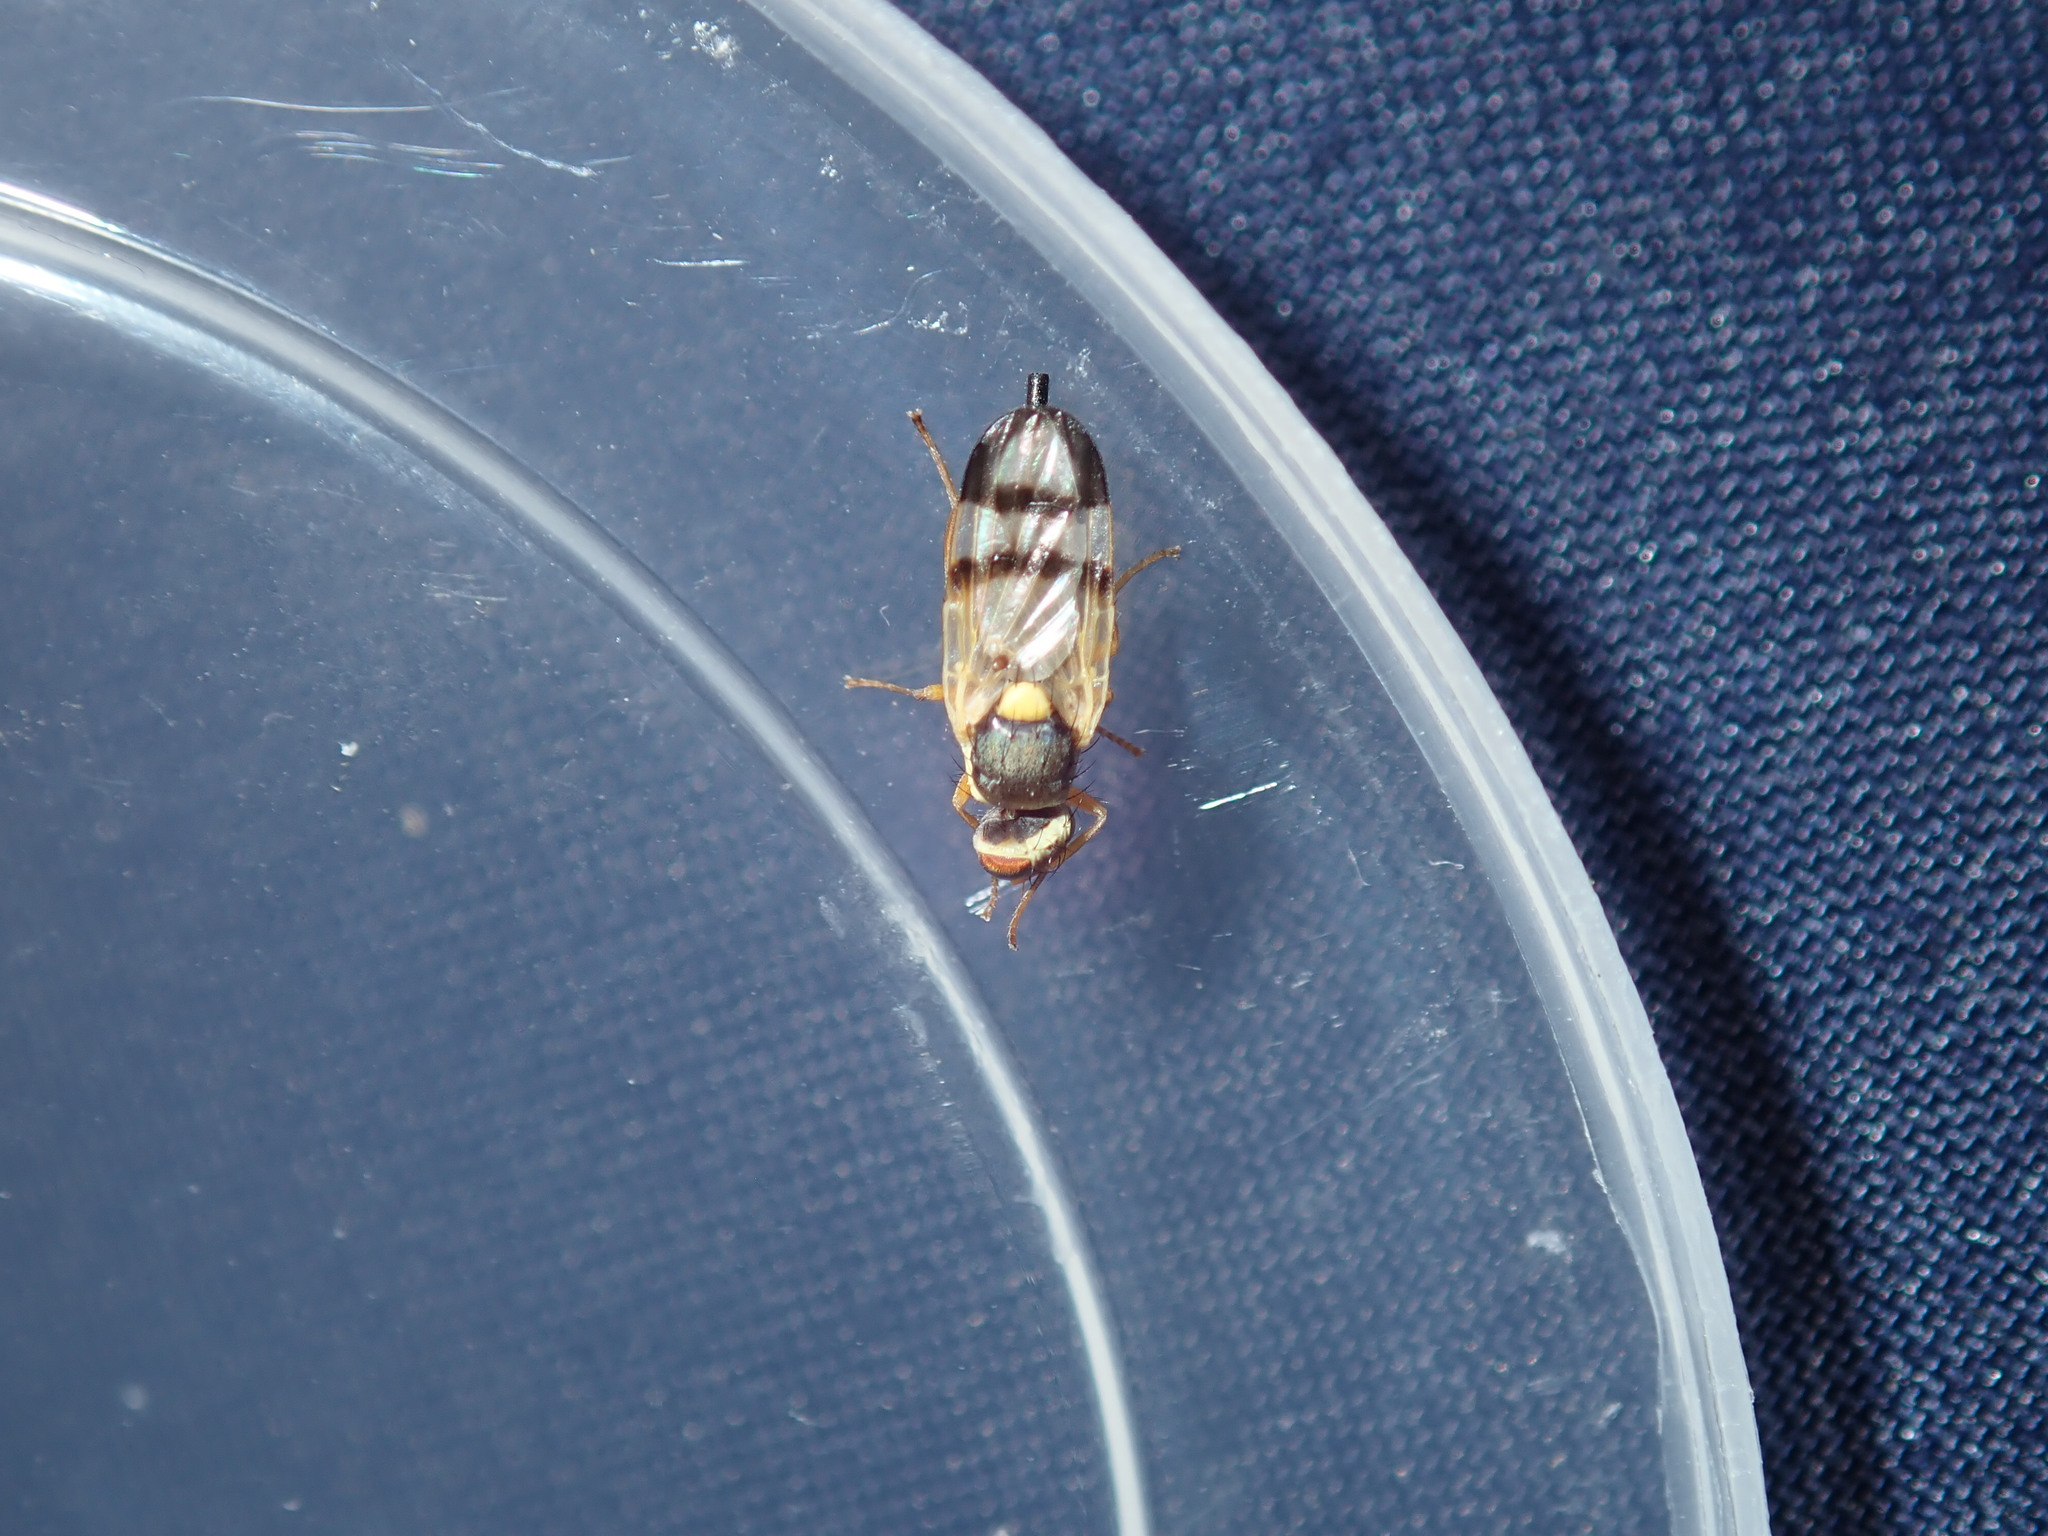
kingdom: Animalia
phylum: Arthropoda
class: Insecta
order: Diptera
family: Tephritidae
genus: Urophora
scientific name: Urophora stylata
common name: Fruit fly
